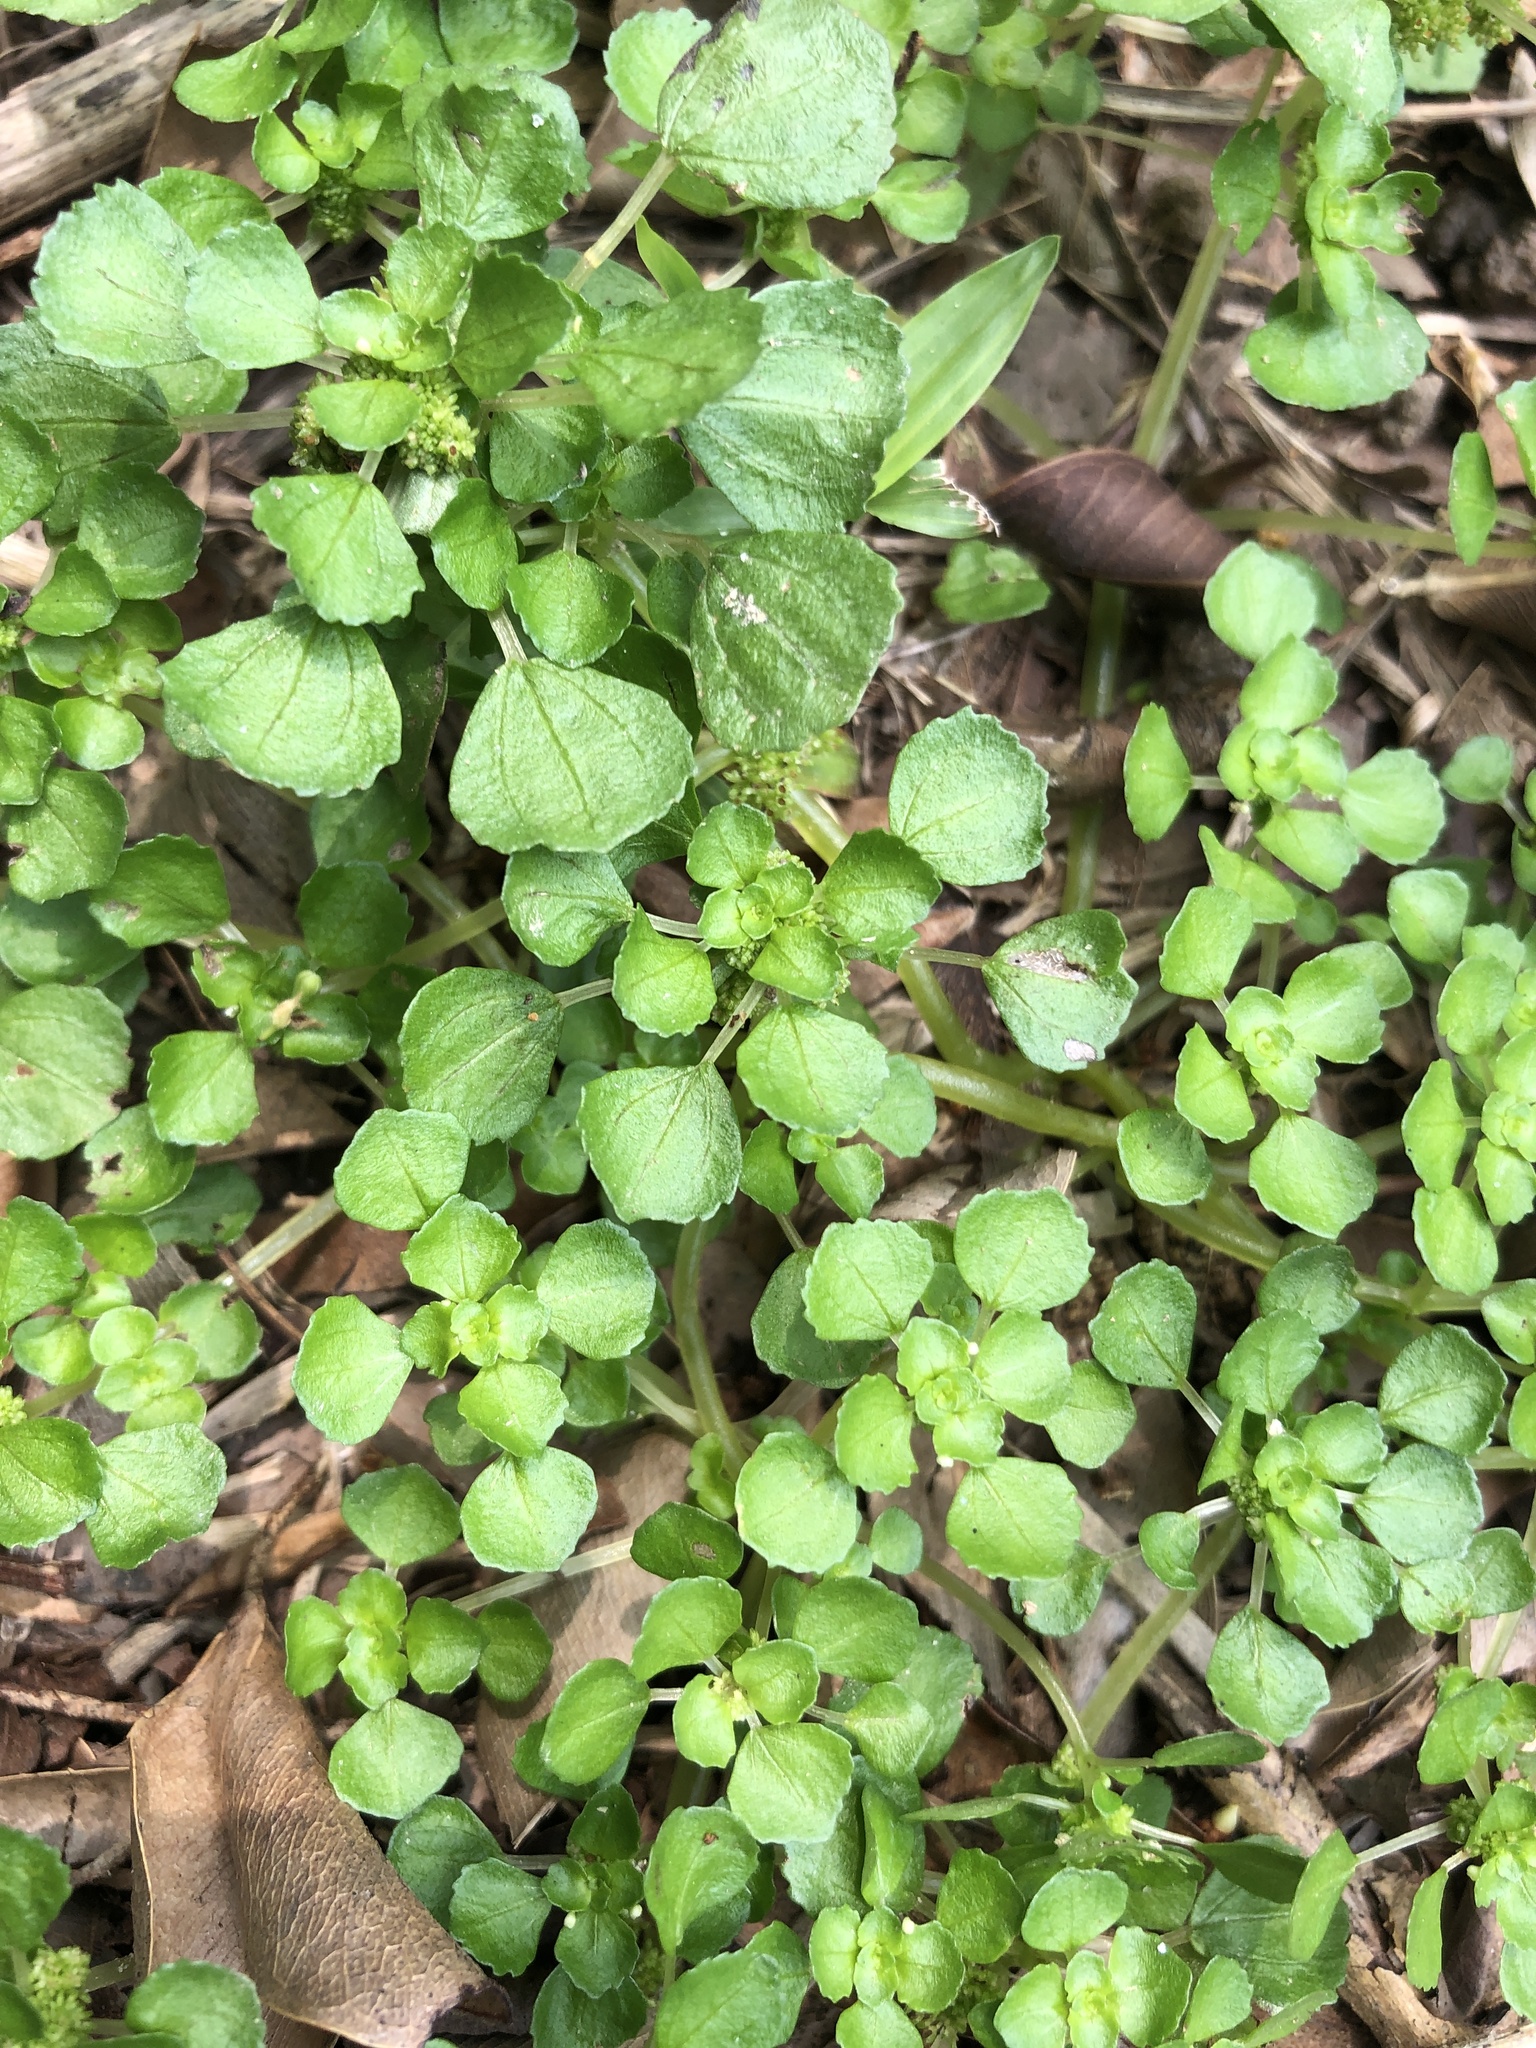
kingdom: Plantae
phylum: Tracheophyta
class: Magnoliopsida
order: Rosales
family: Urticaceae
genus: Pilea
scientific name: Pilea peploides
